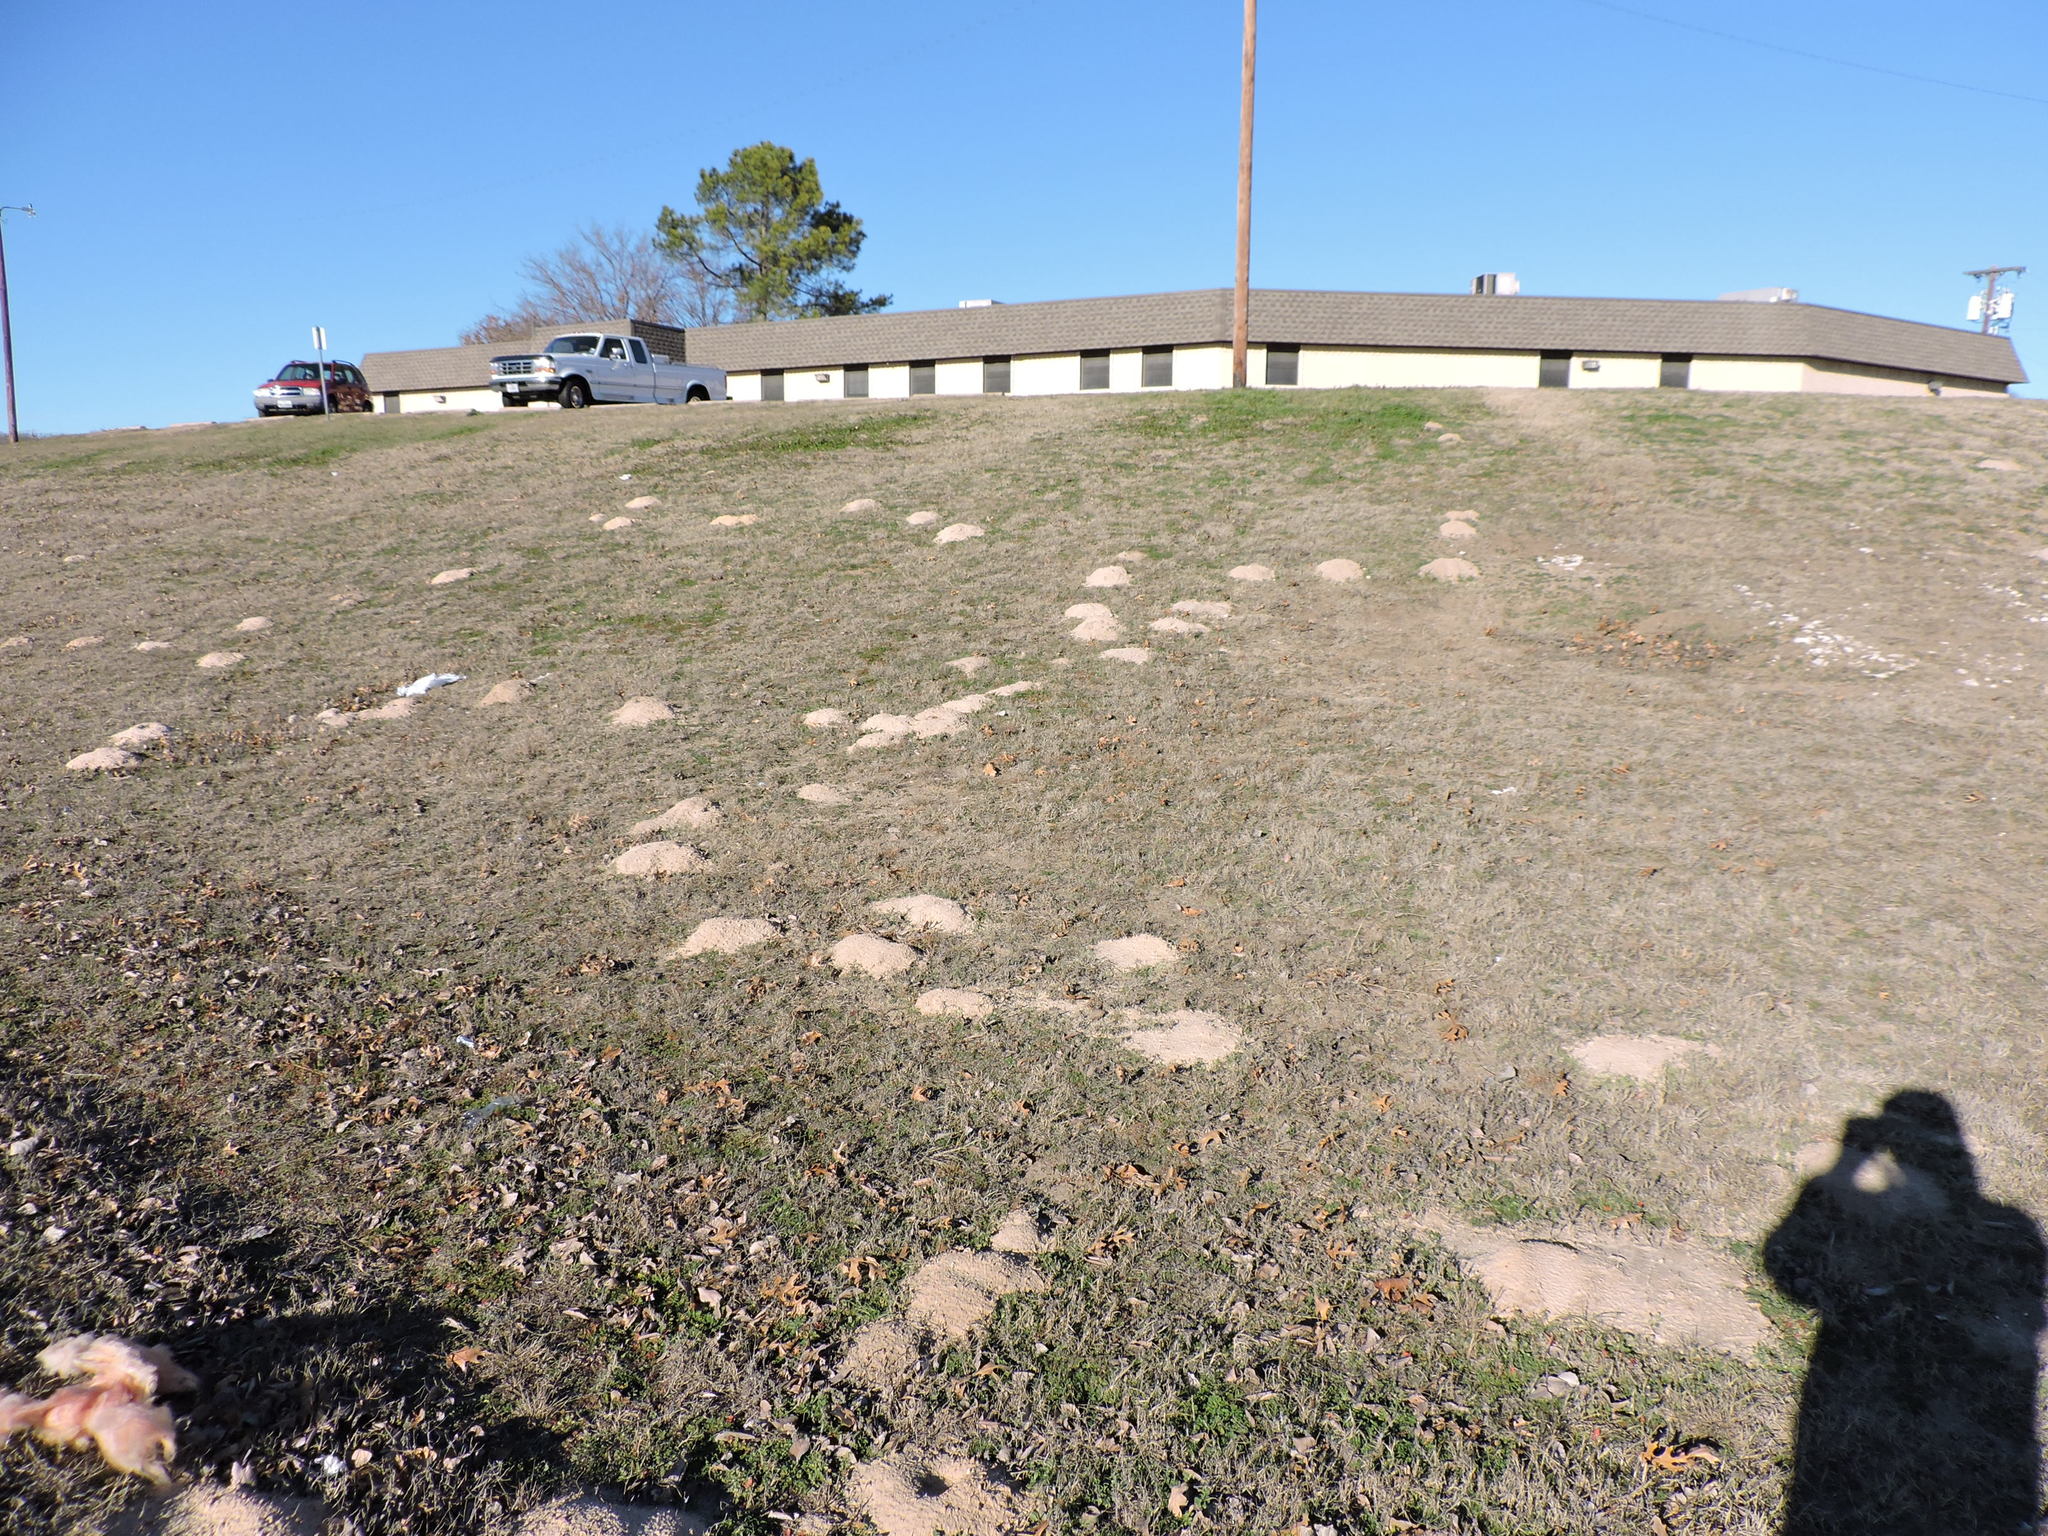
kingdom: Animalia
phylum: Chordata
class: Mammalia
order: Rodentia
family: Geomyidae
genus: Geomys
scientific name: Geomys bursarius
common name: Plains pocket gopher
